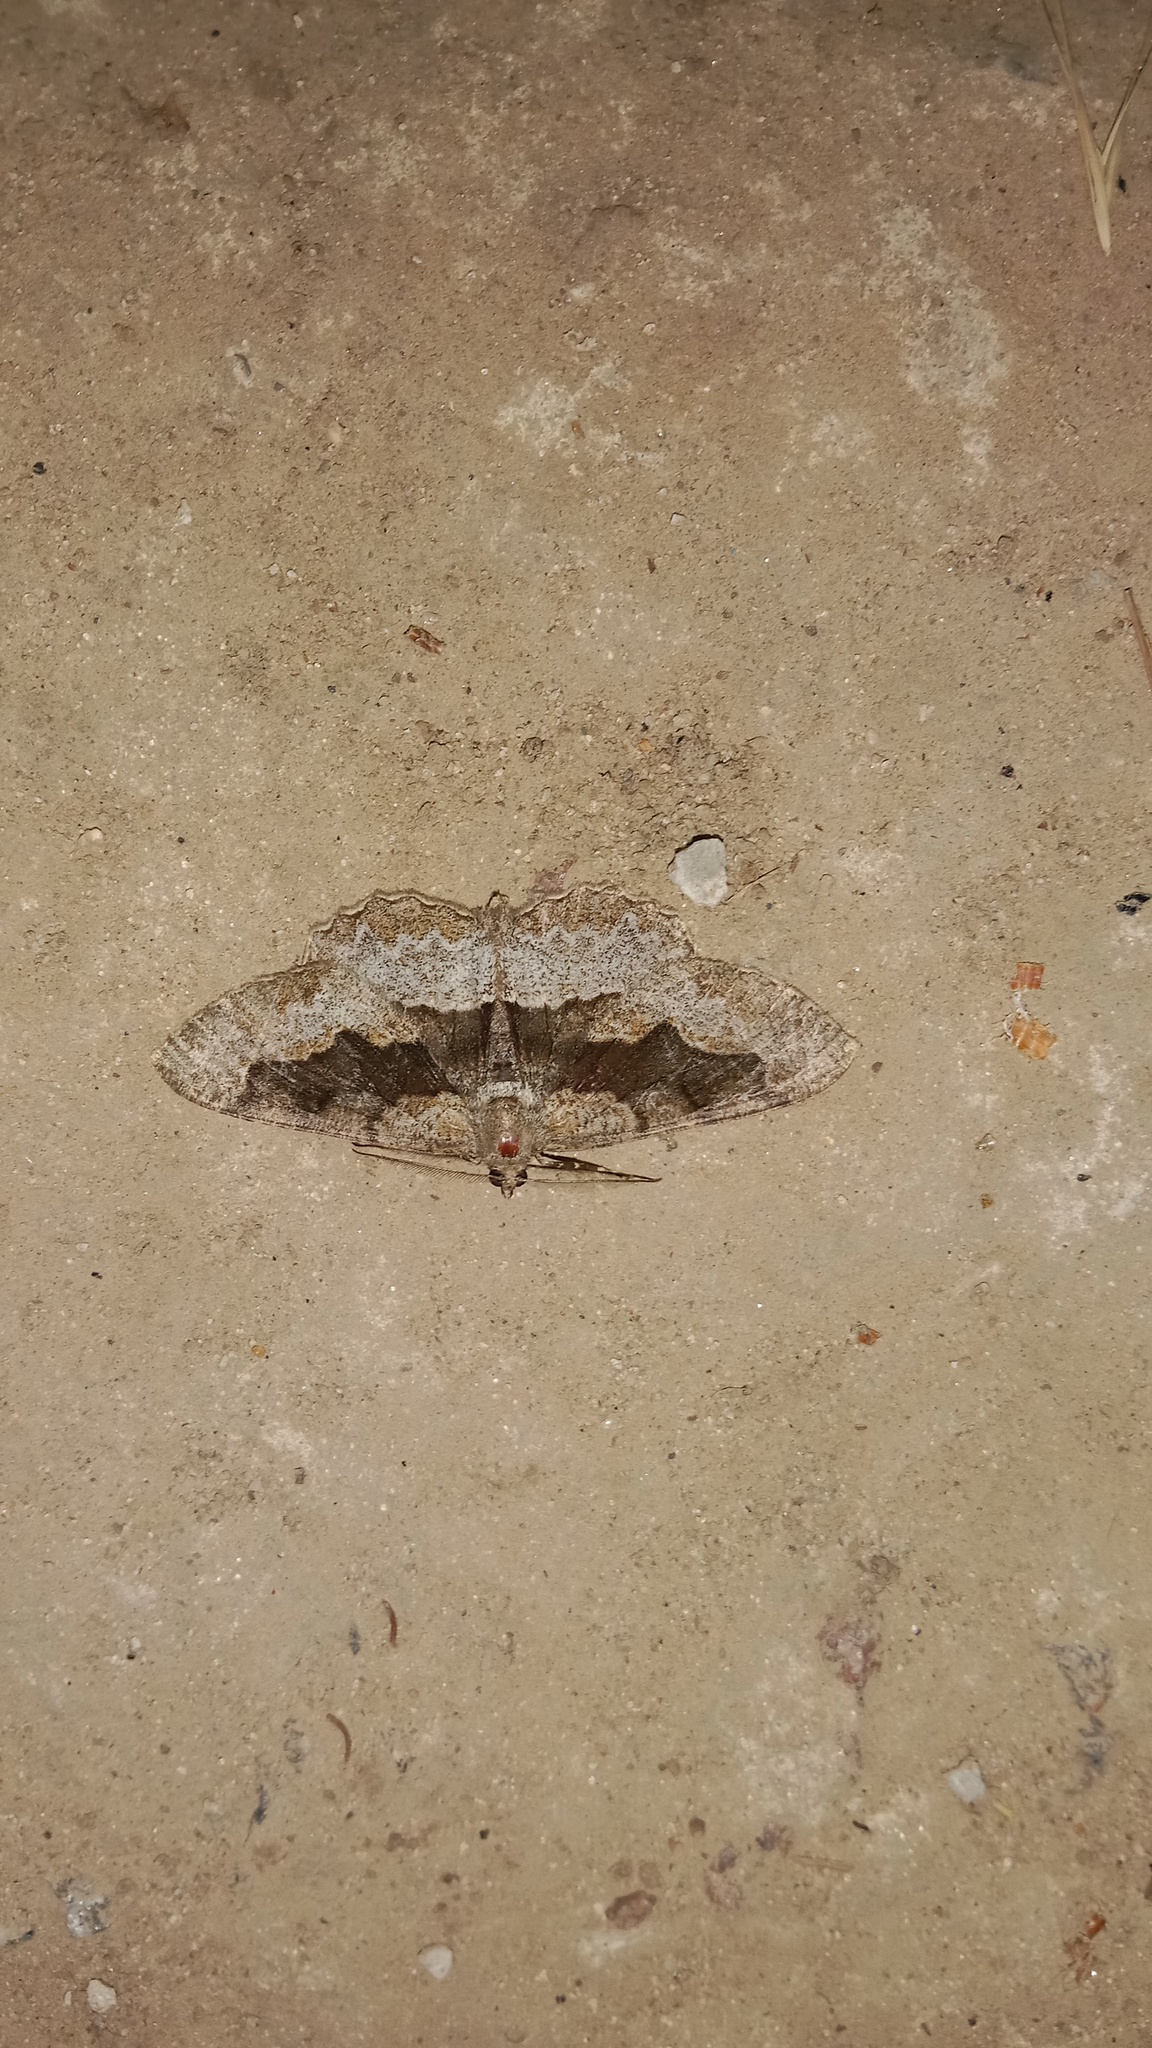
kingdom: Animalia
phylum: Arthropoda
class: Insecta
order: Lepidoptera
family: Geometridae
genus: Alcis
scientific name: Alcis repandata
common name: Mottled beauty
